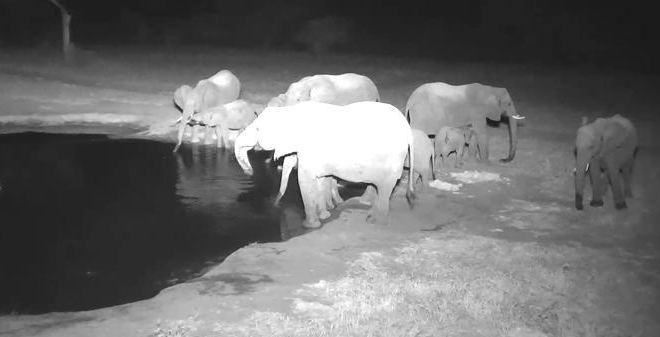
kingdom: Animalia
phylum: Chordata
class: Mammalia
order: Proboscidea
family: Elephantidae
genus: Loxodonta
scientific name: Loxodonta africana
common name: African elephant
